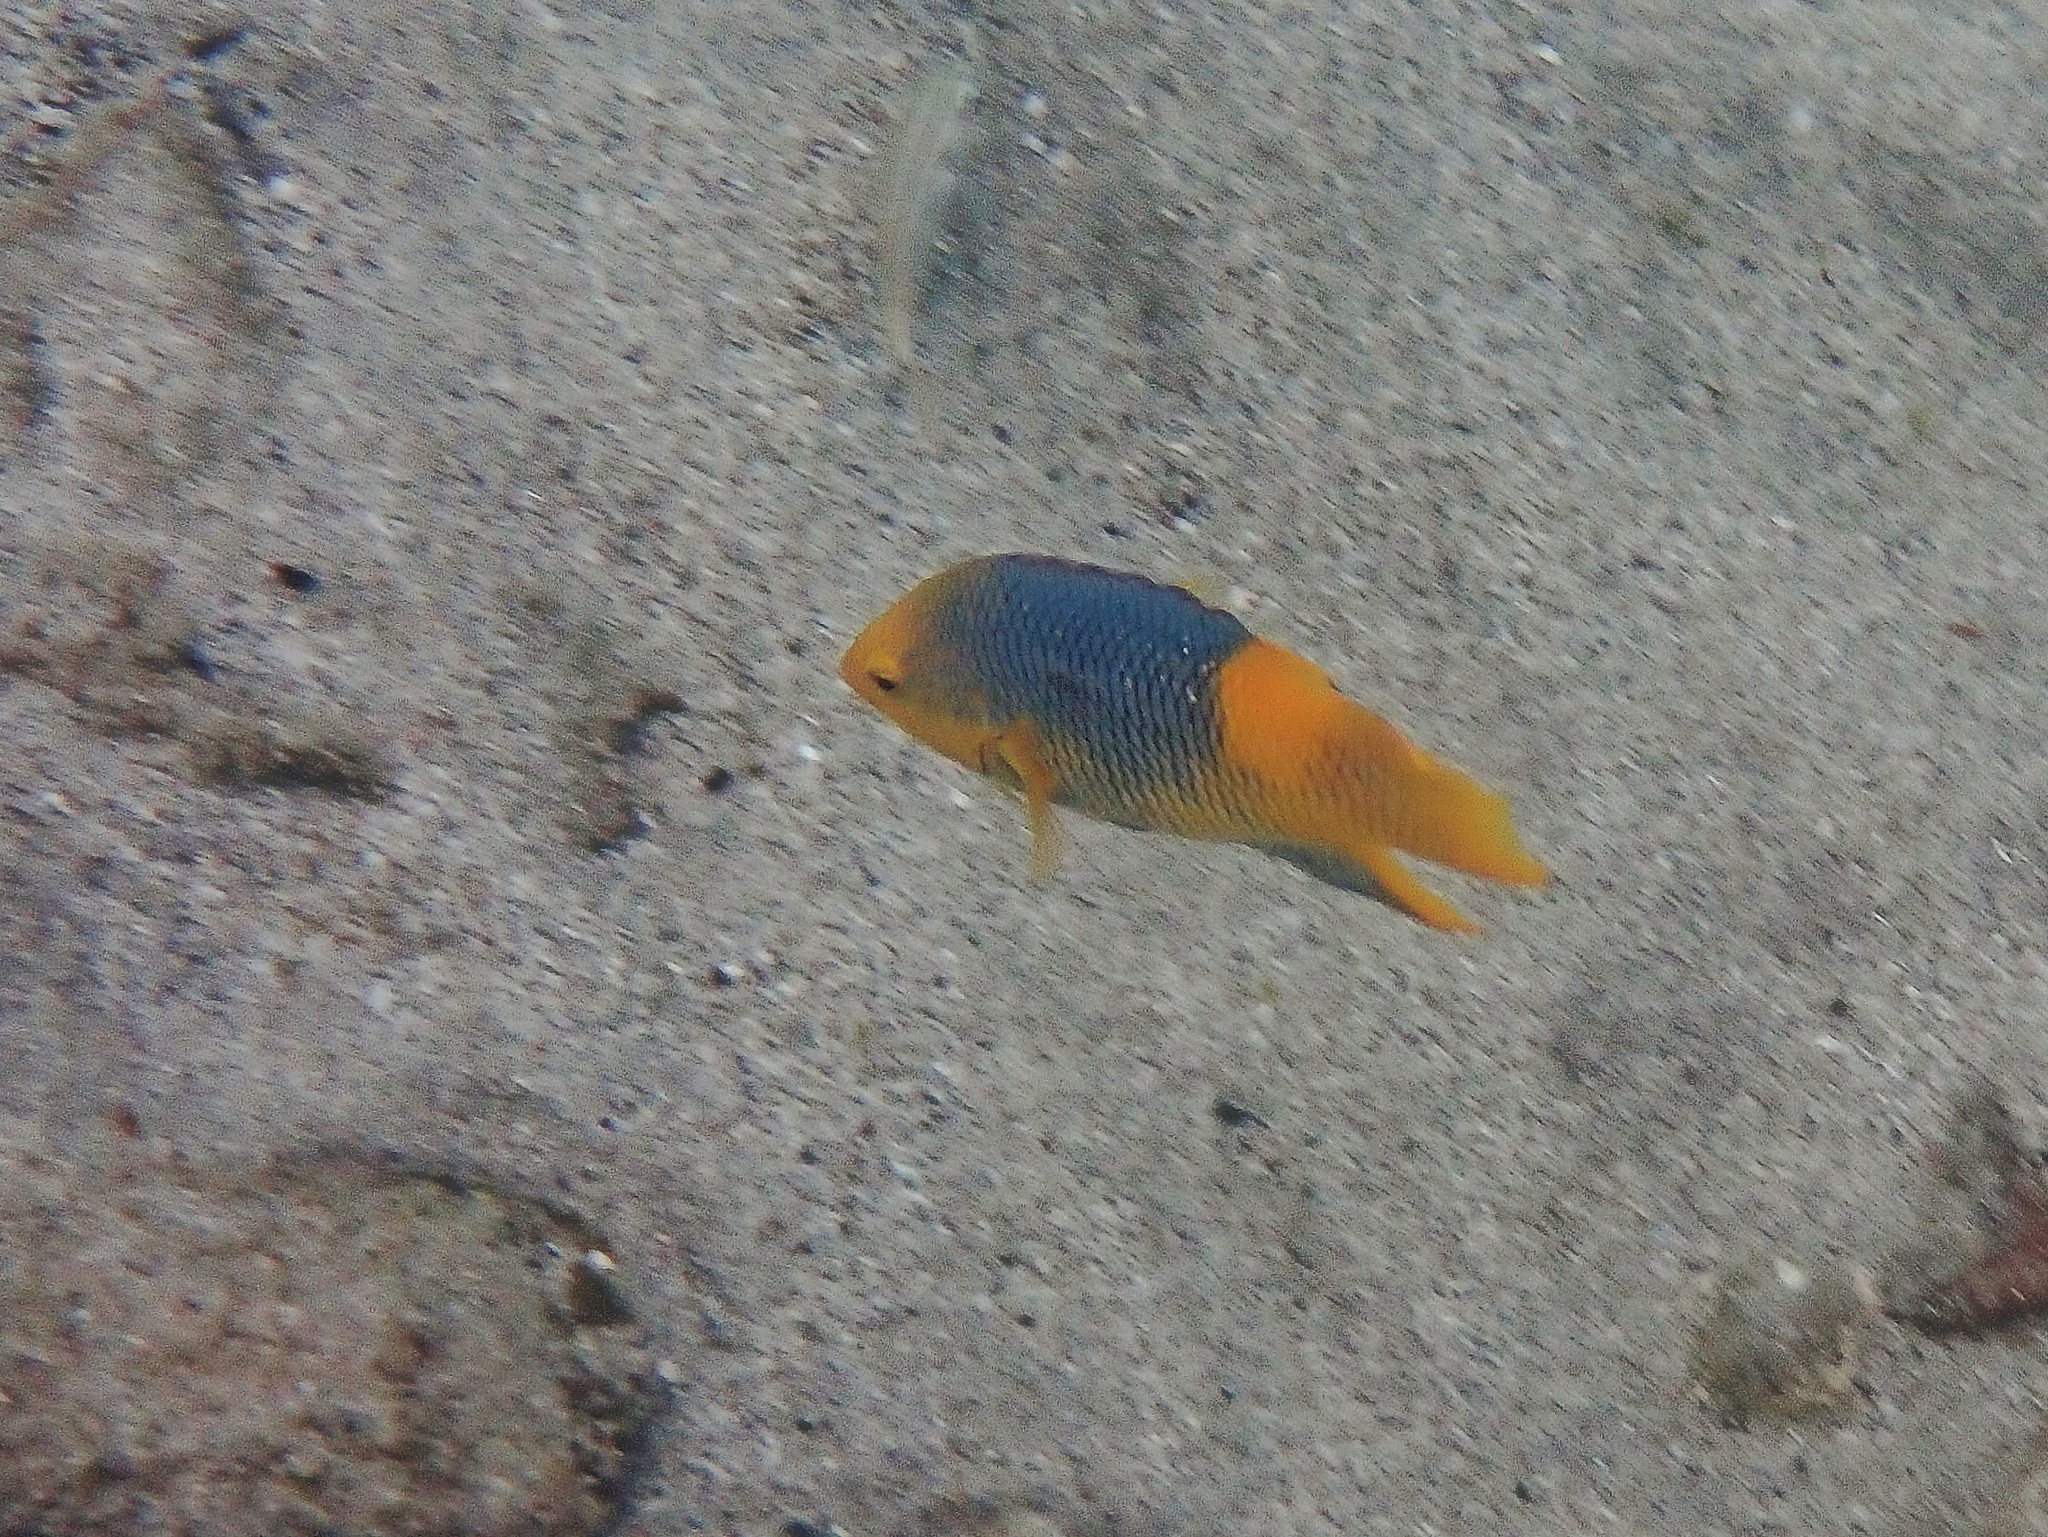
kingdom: Animalia
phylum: Chordata
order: Perciformes
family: Labridae
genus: Bodianus
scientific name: Bodianus rufus
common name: Spanish hogfish
